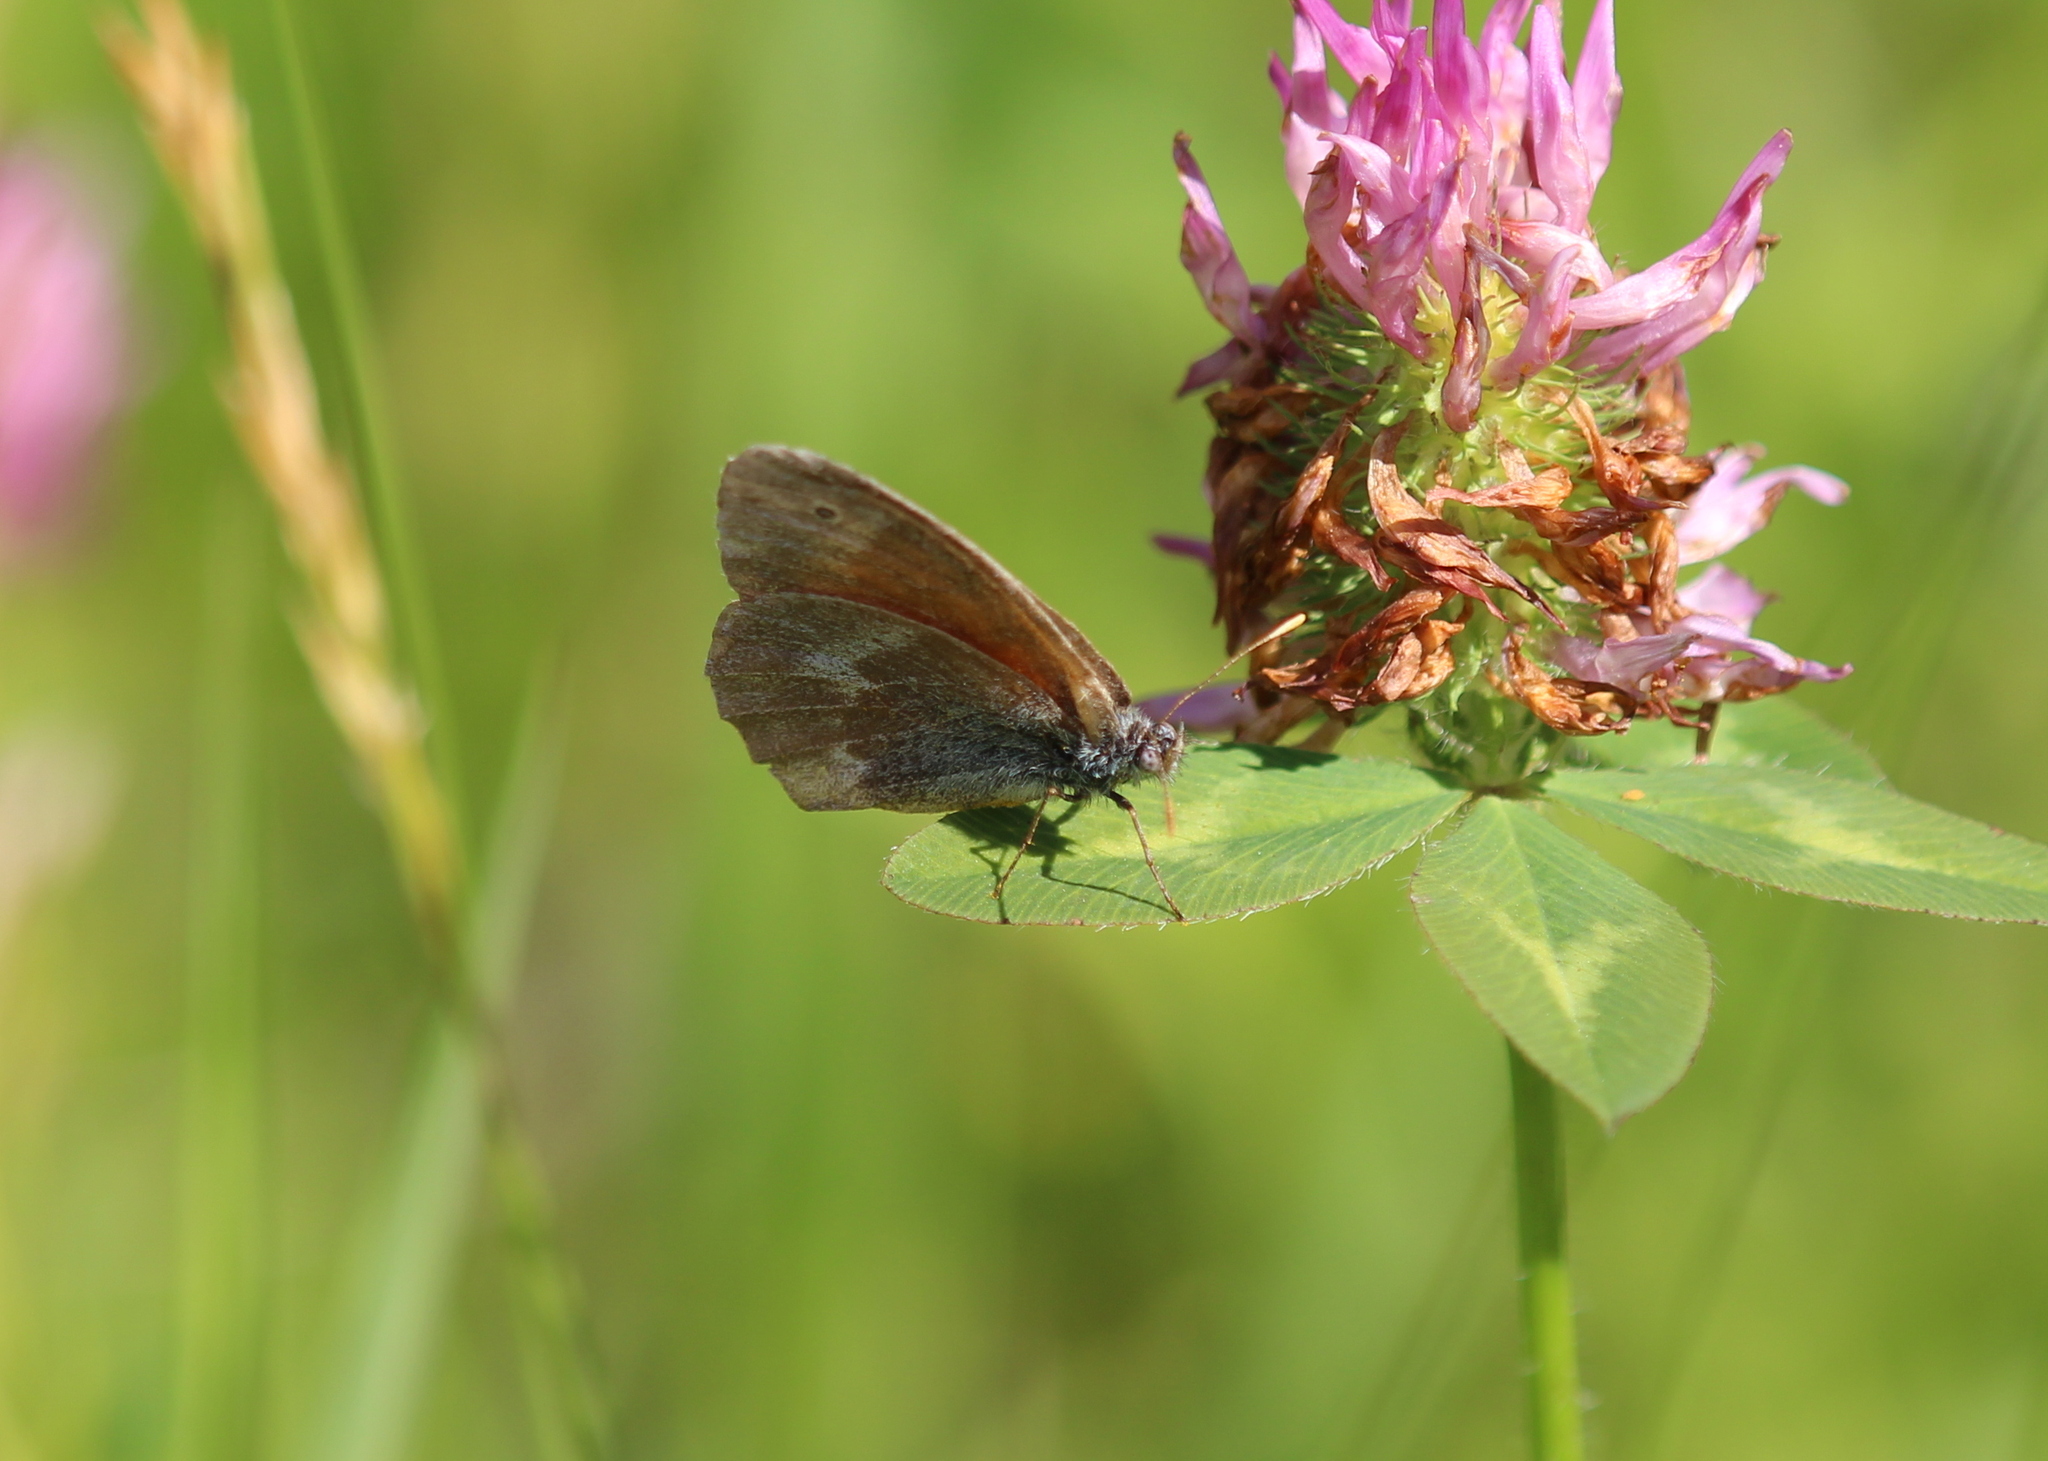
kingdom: Animalia
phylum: Arthropoda
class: Insecta
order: Lepidoptera
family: Nymphalidae
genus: Coenonympha
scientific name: Coenonympha california
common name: Common ringlet
